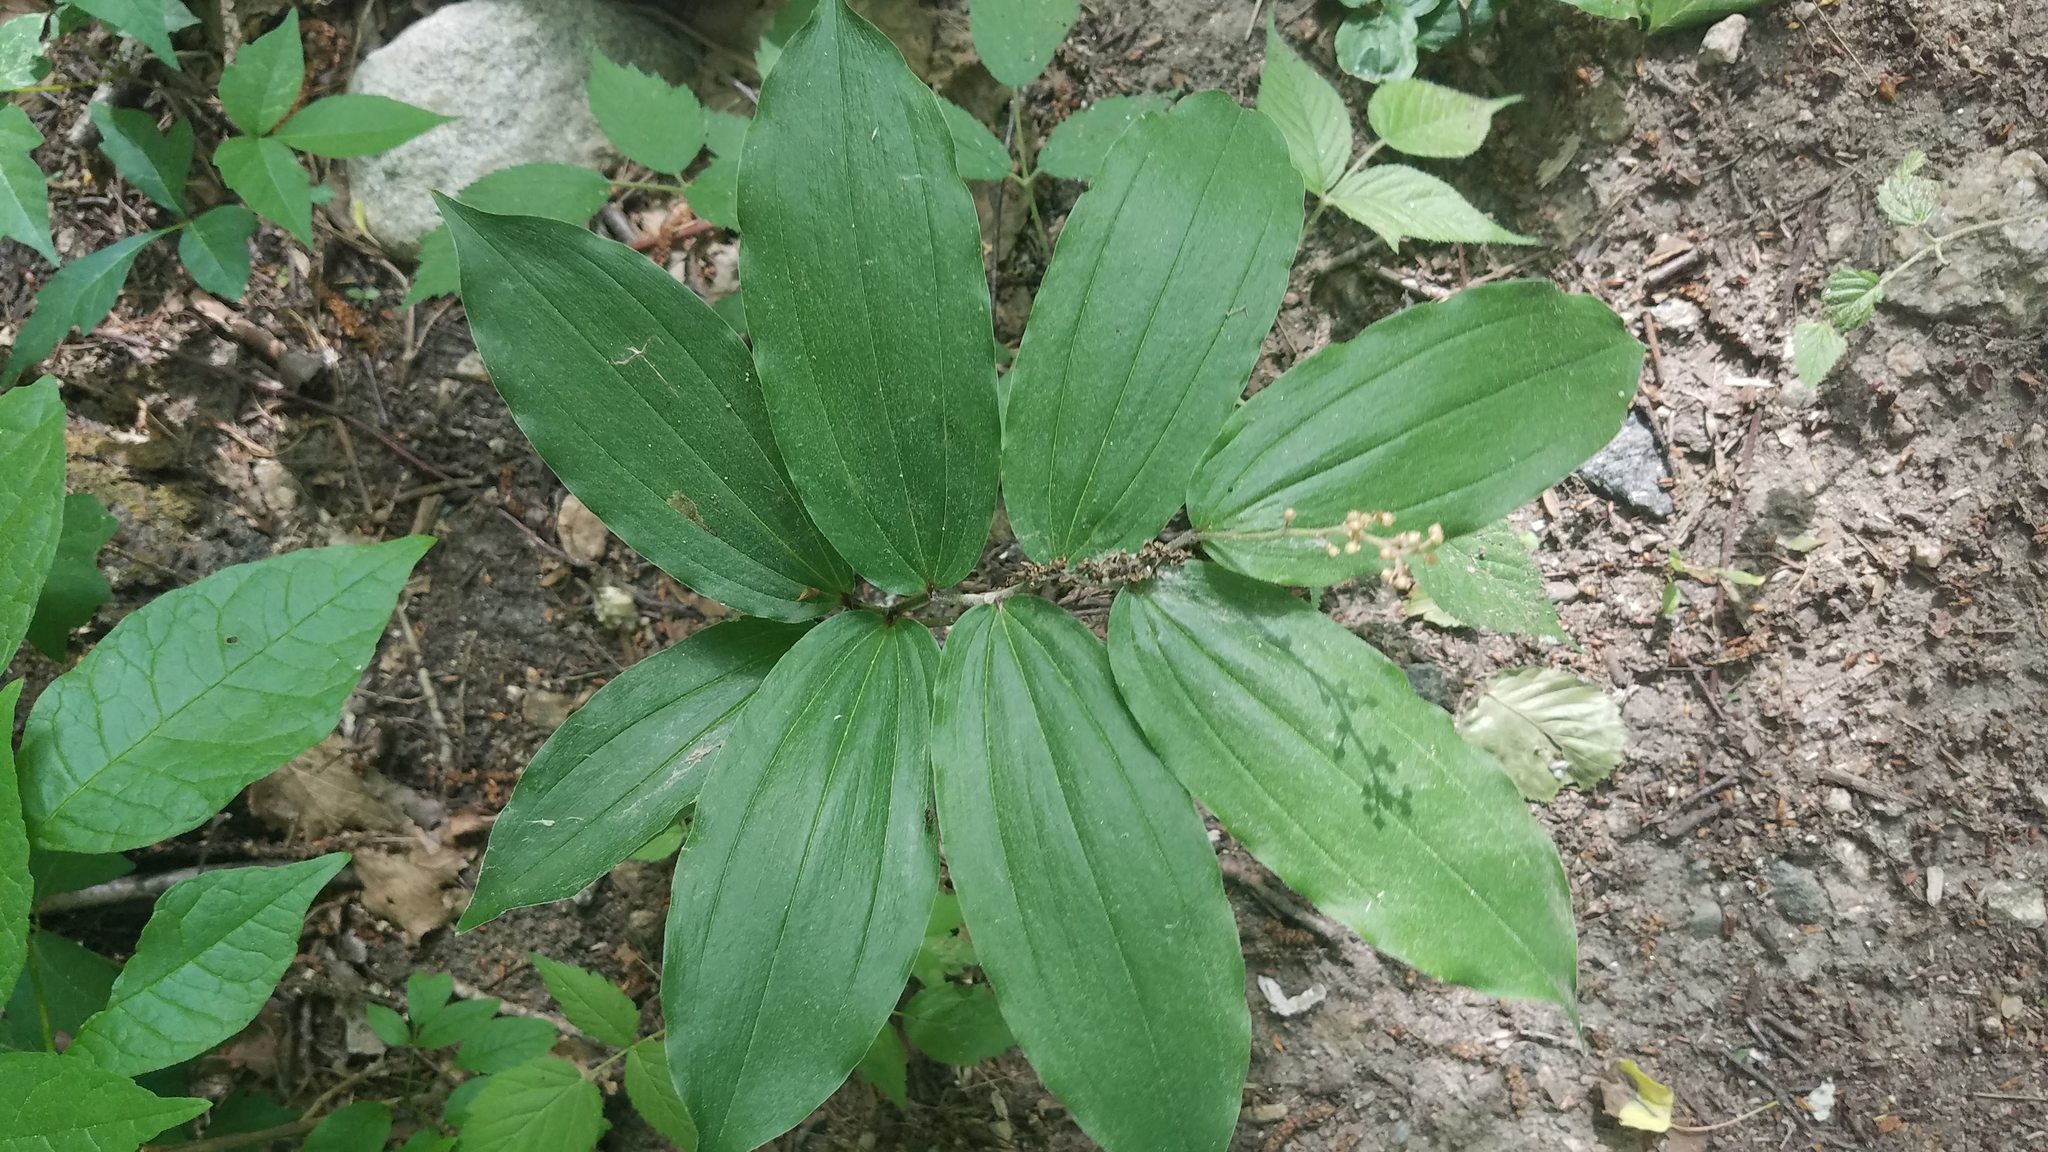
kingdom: Plantae
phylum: Tracheophyta
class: Liliopsida
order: Asparagales
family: Asparagaceae
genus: Maianthemum
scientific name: Maianthemum racemosum
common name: False spikenard
